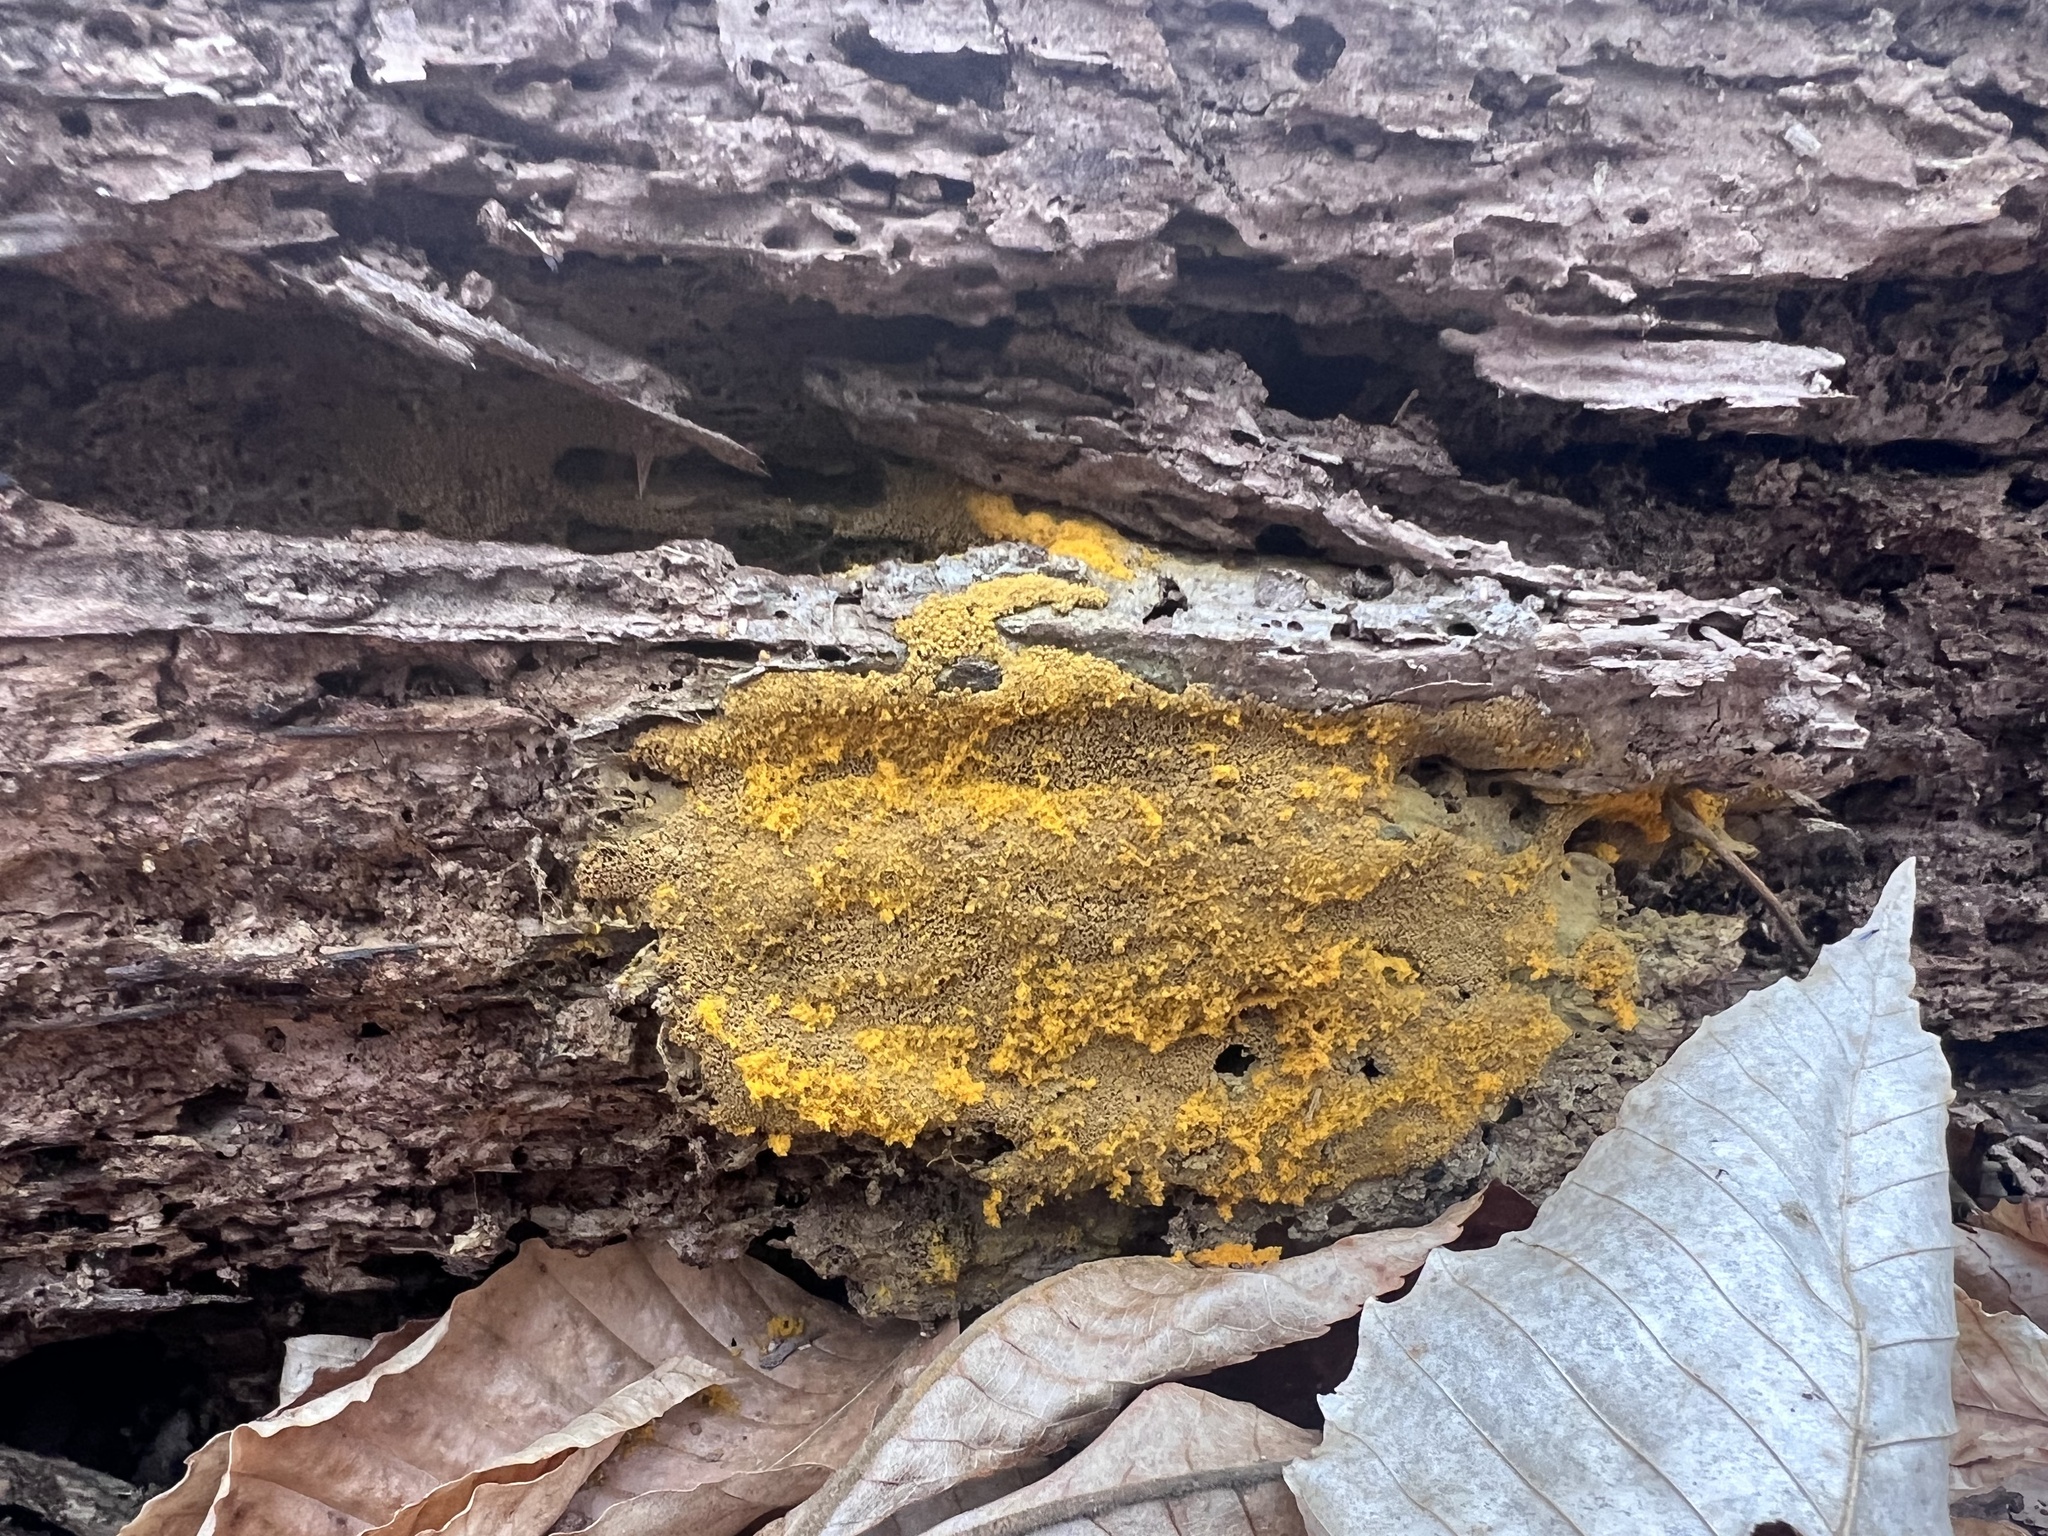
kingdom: Protozoa
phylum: Mycetozoa
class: Myxomycetes
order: Physarales
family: Physaraceae
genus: Fuligo
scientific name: Fuligo septica
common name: Dog vomit slime mold
